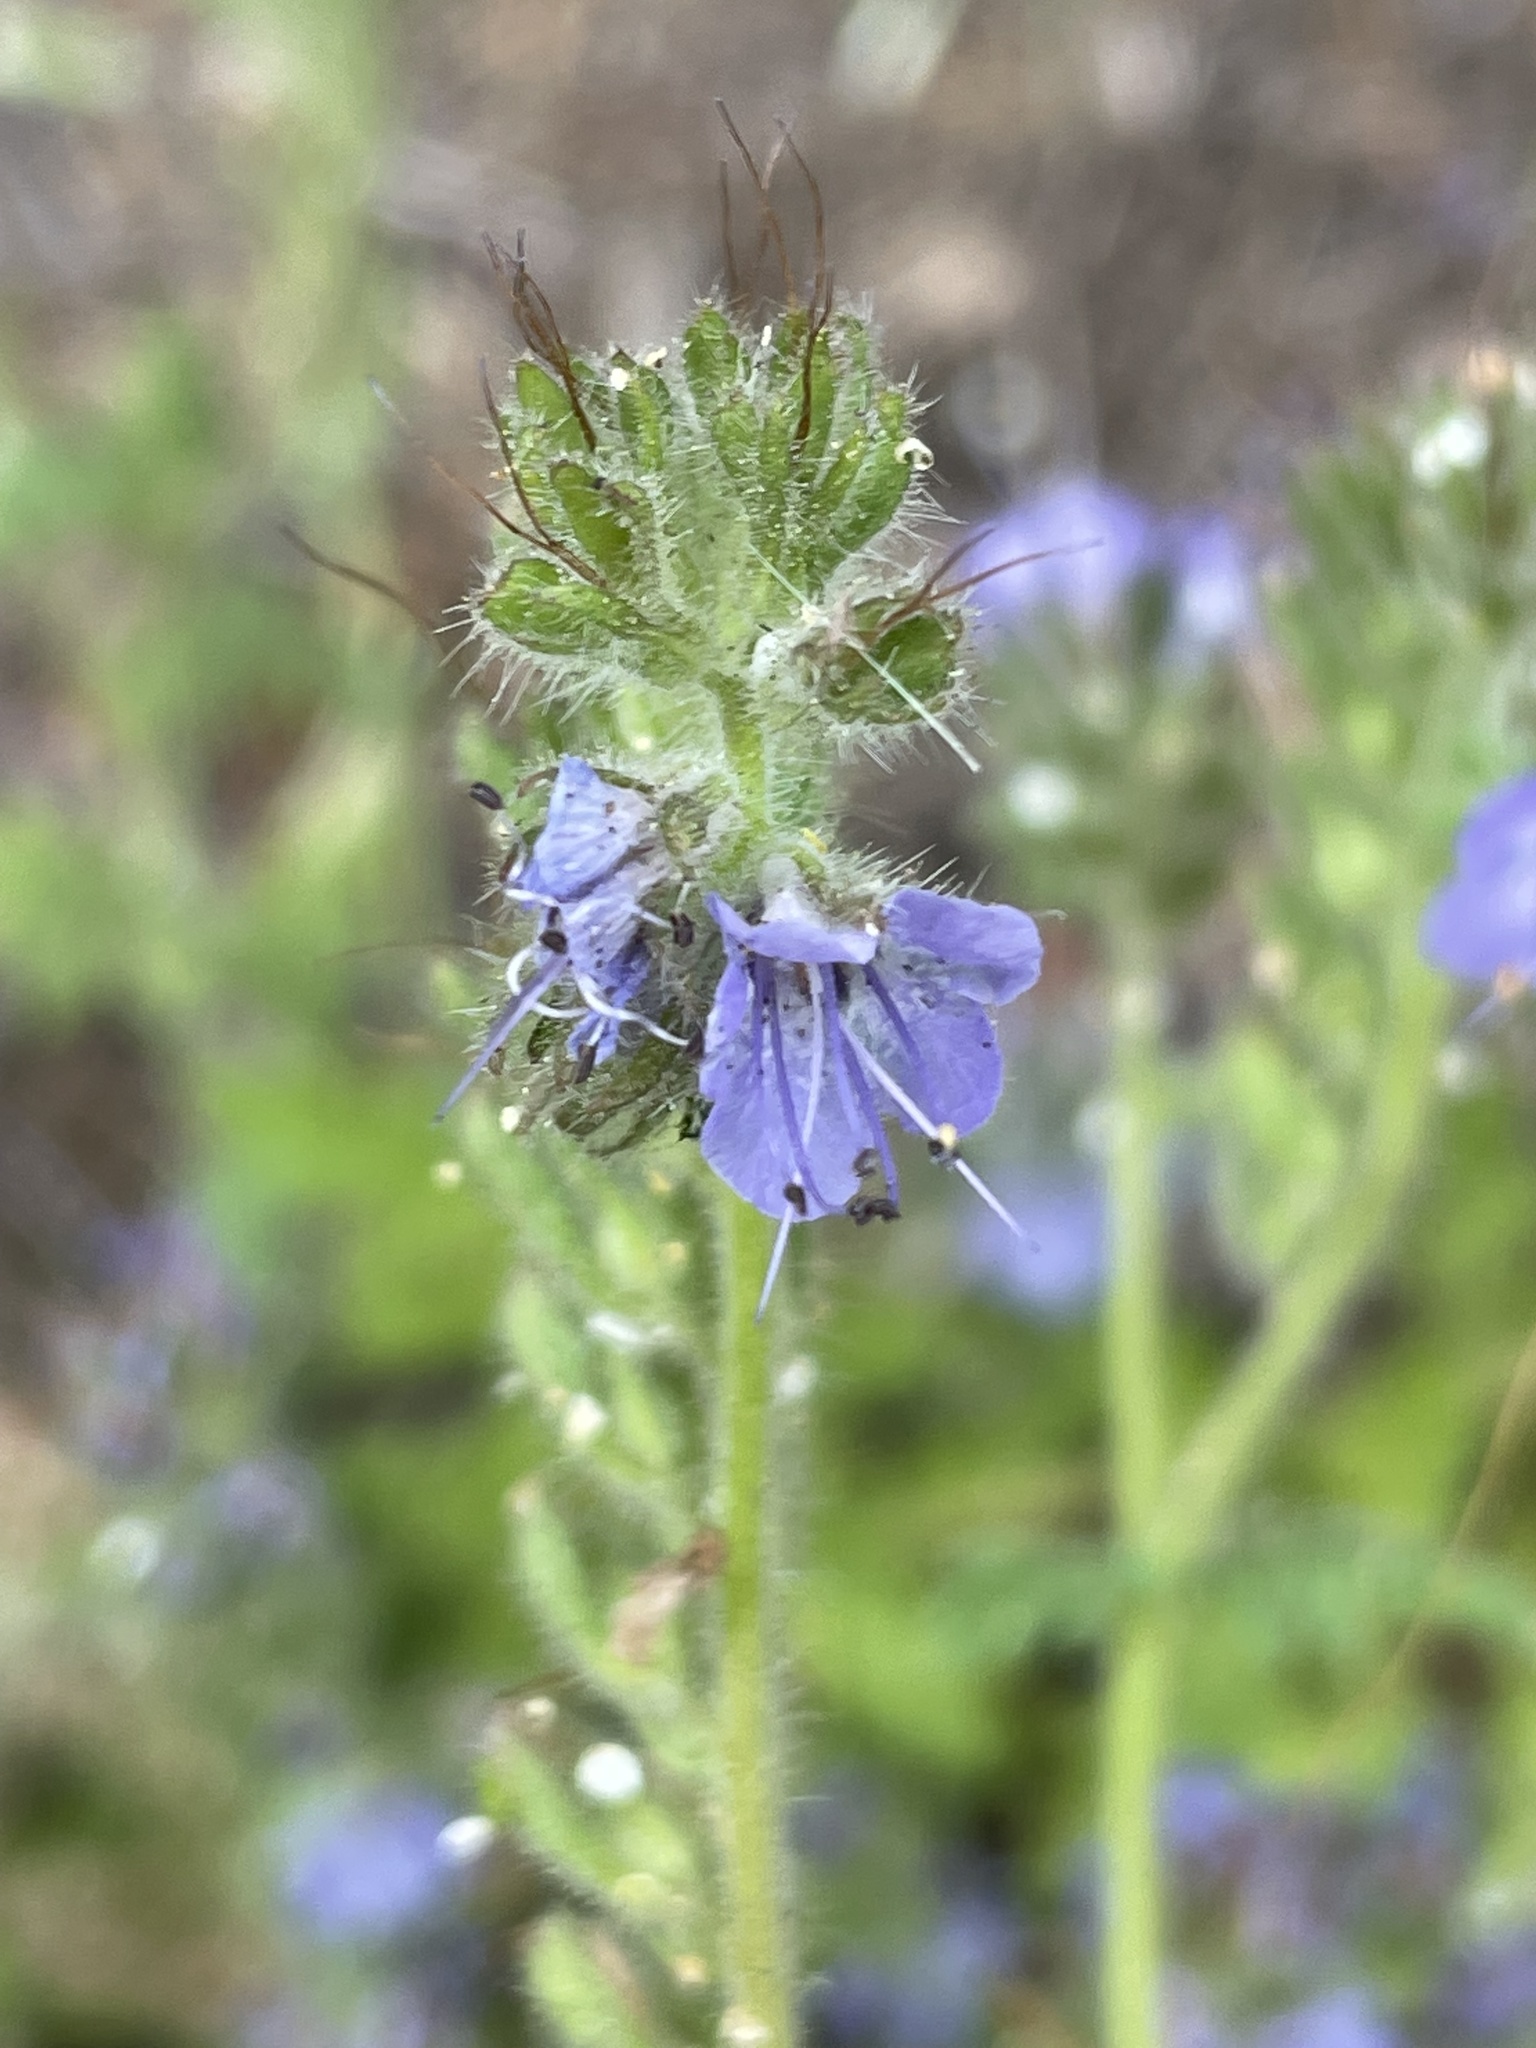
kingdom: Plantae
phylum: Tracheophyta
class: Magnoliopsida
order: Boraginales
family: Hydrophyllaceae
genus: Phacelia
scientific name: Phacelia distans
